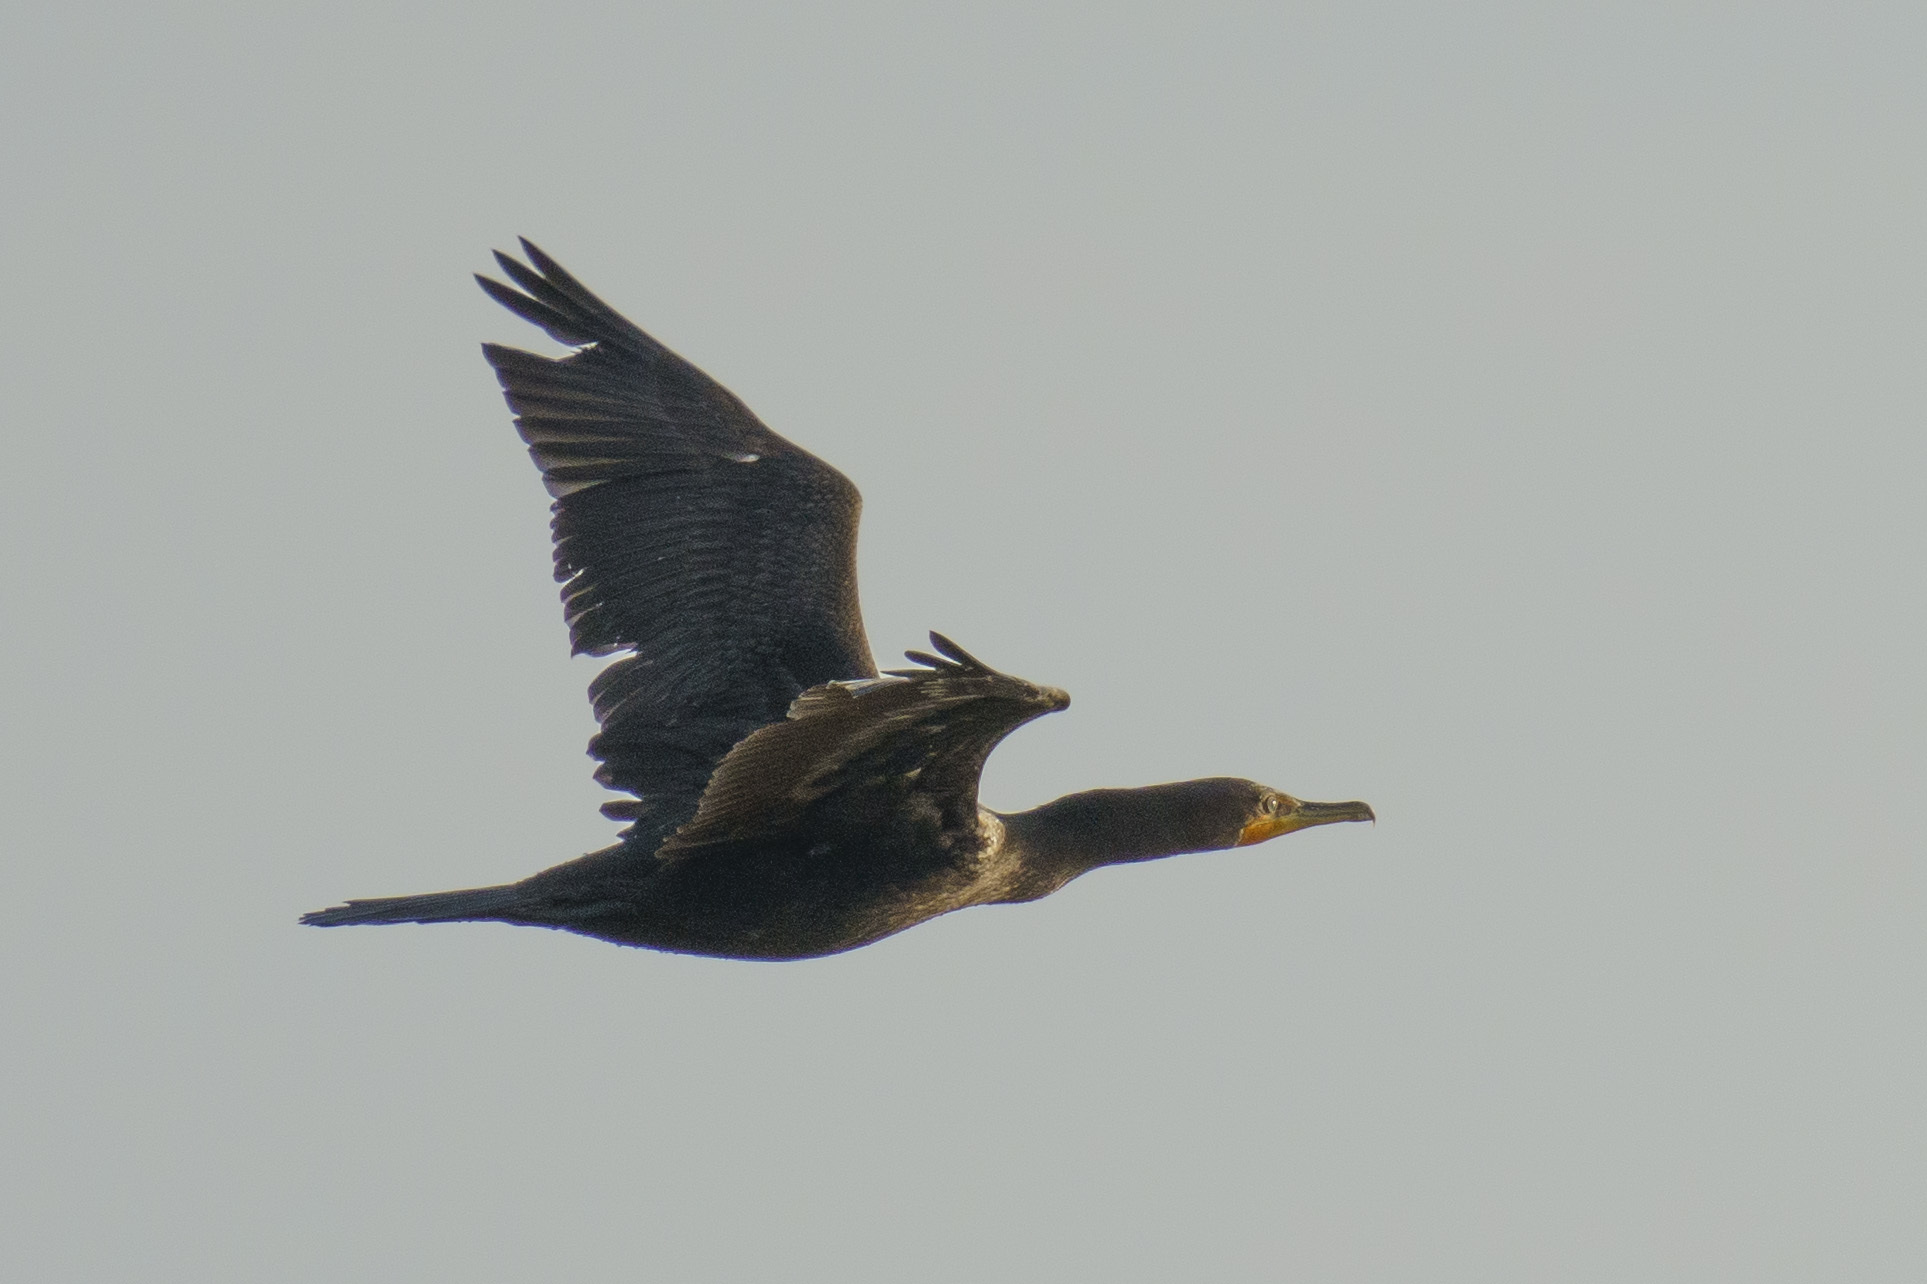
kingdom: Animalia
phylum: Chordata
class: Aves
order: Suliformes
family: Phalacrocoracidae
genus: Phalacrocorax
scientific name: Phalacrocorax auritus
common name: Double-crested cormorant
